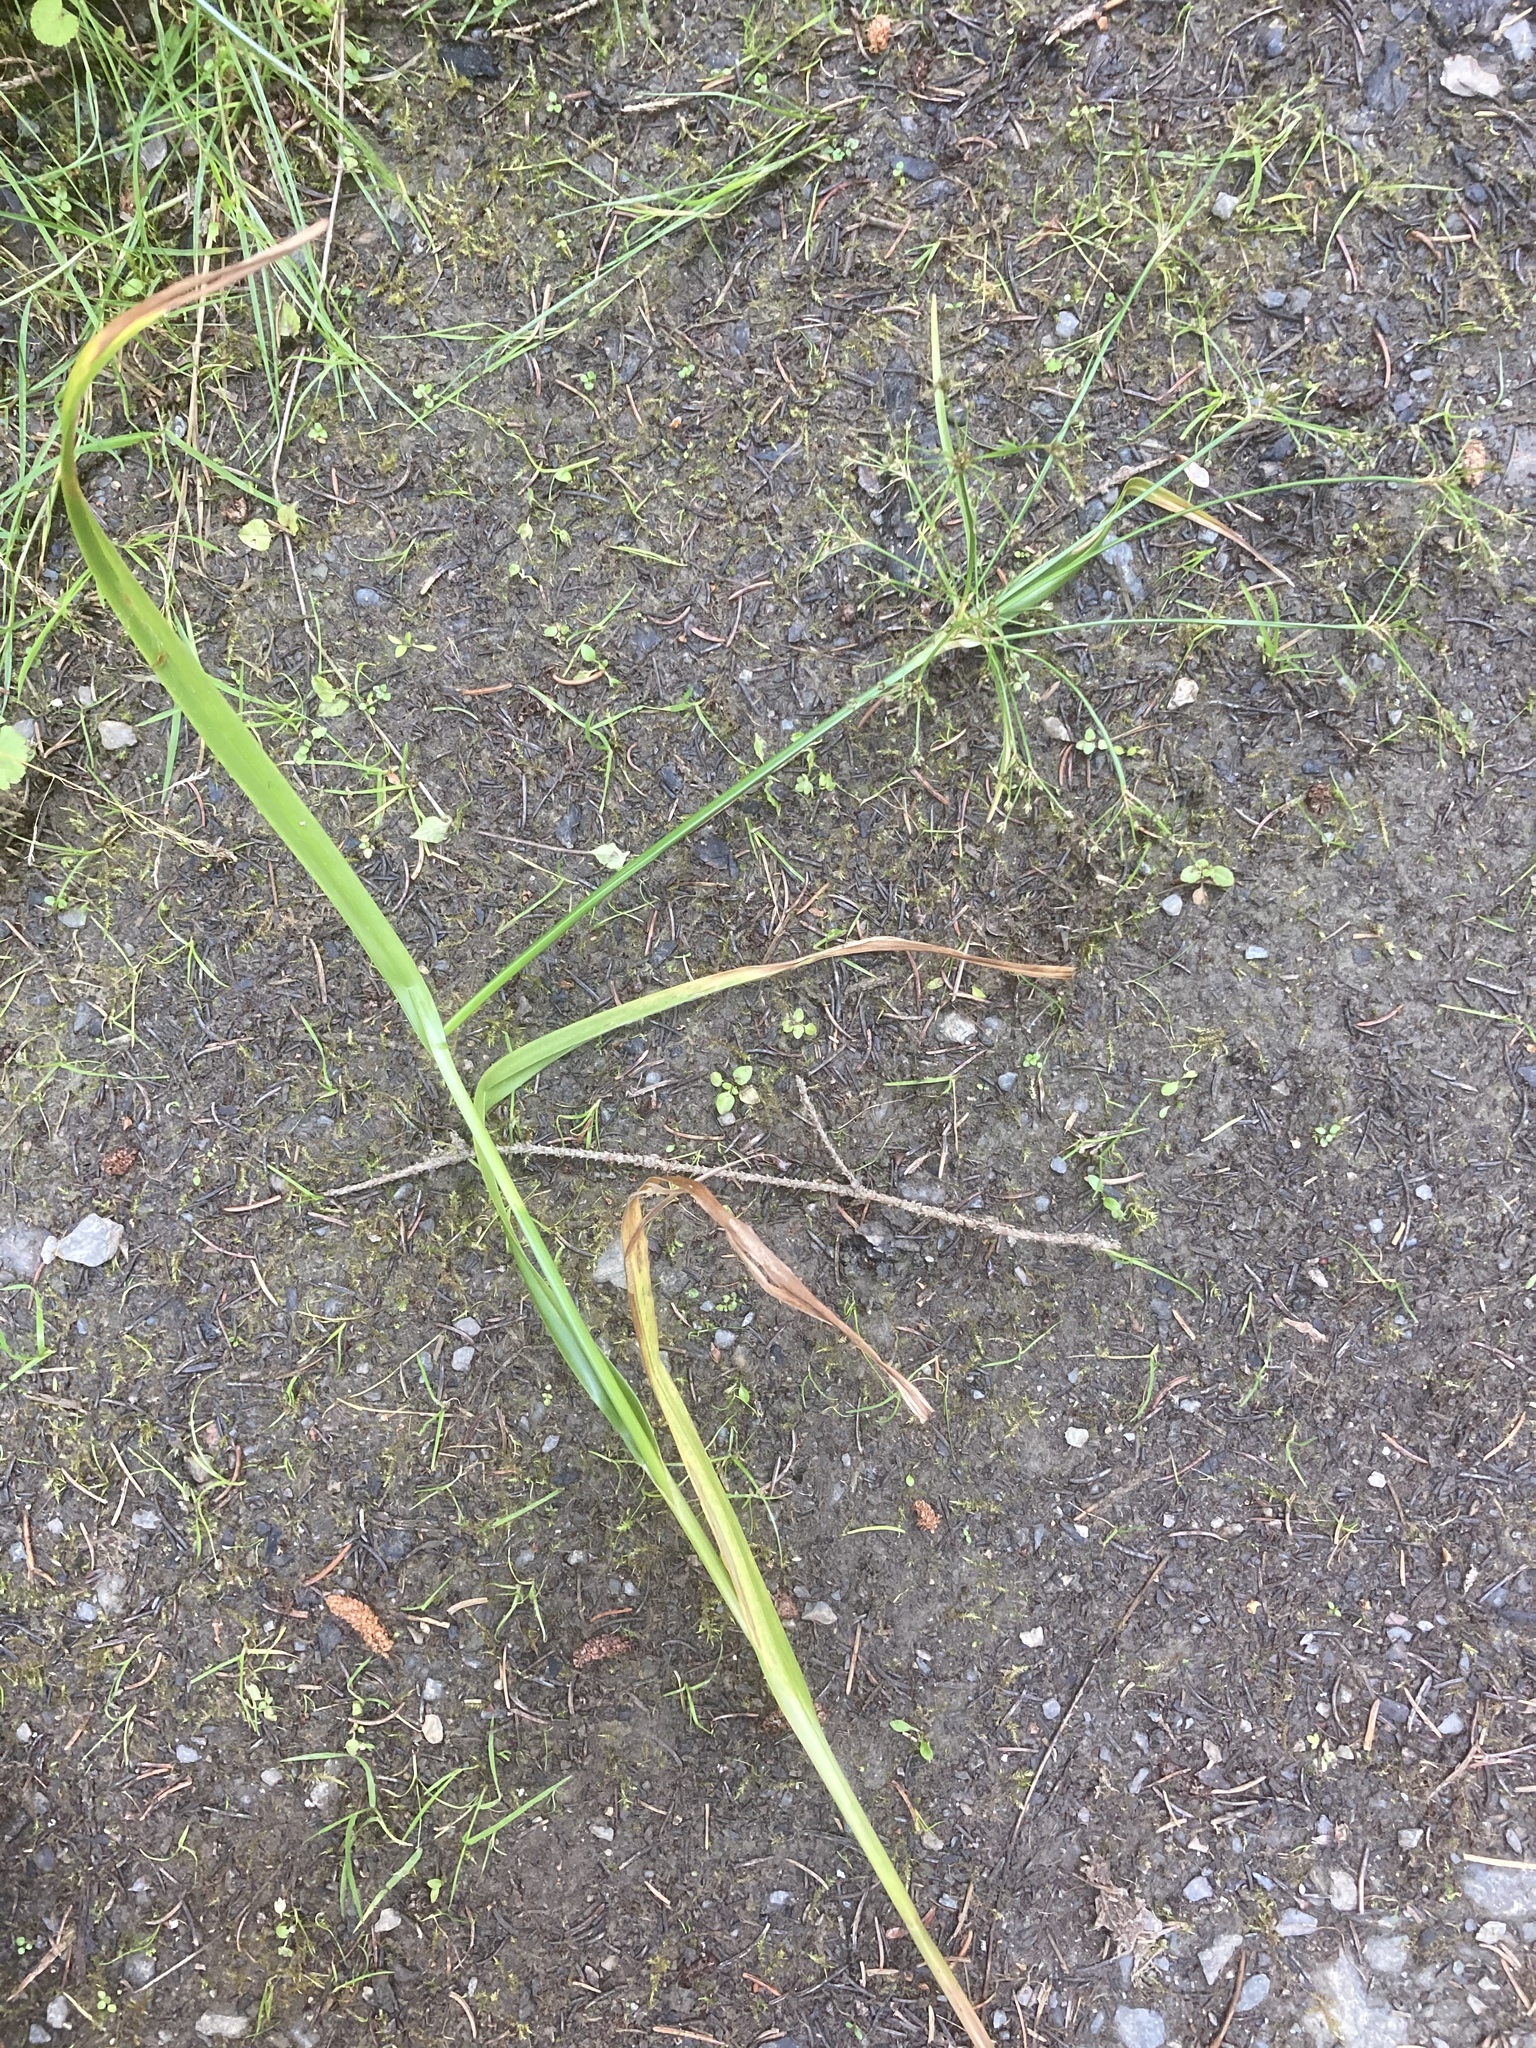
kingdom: Plantae
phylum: Tracheophyta
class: Liliopsida
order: Poales
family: Cyperaceae
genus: Scirpus
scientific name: Scirpus sylvaticus
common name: Wood club-rush
